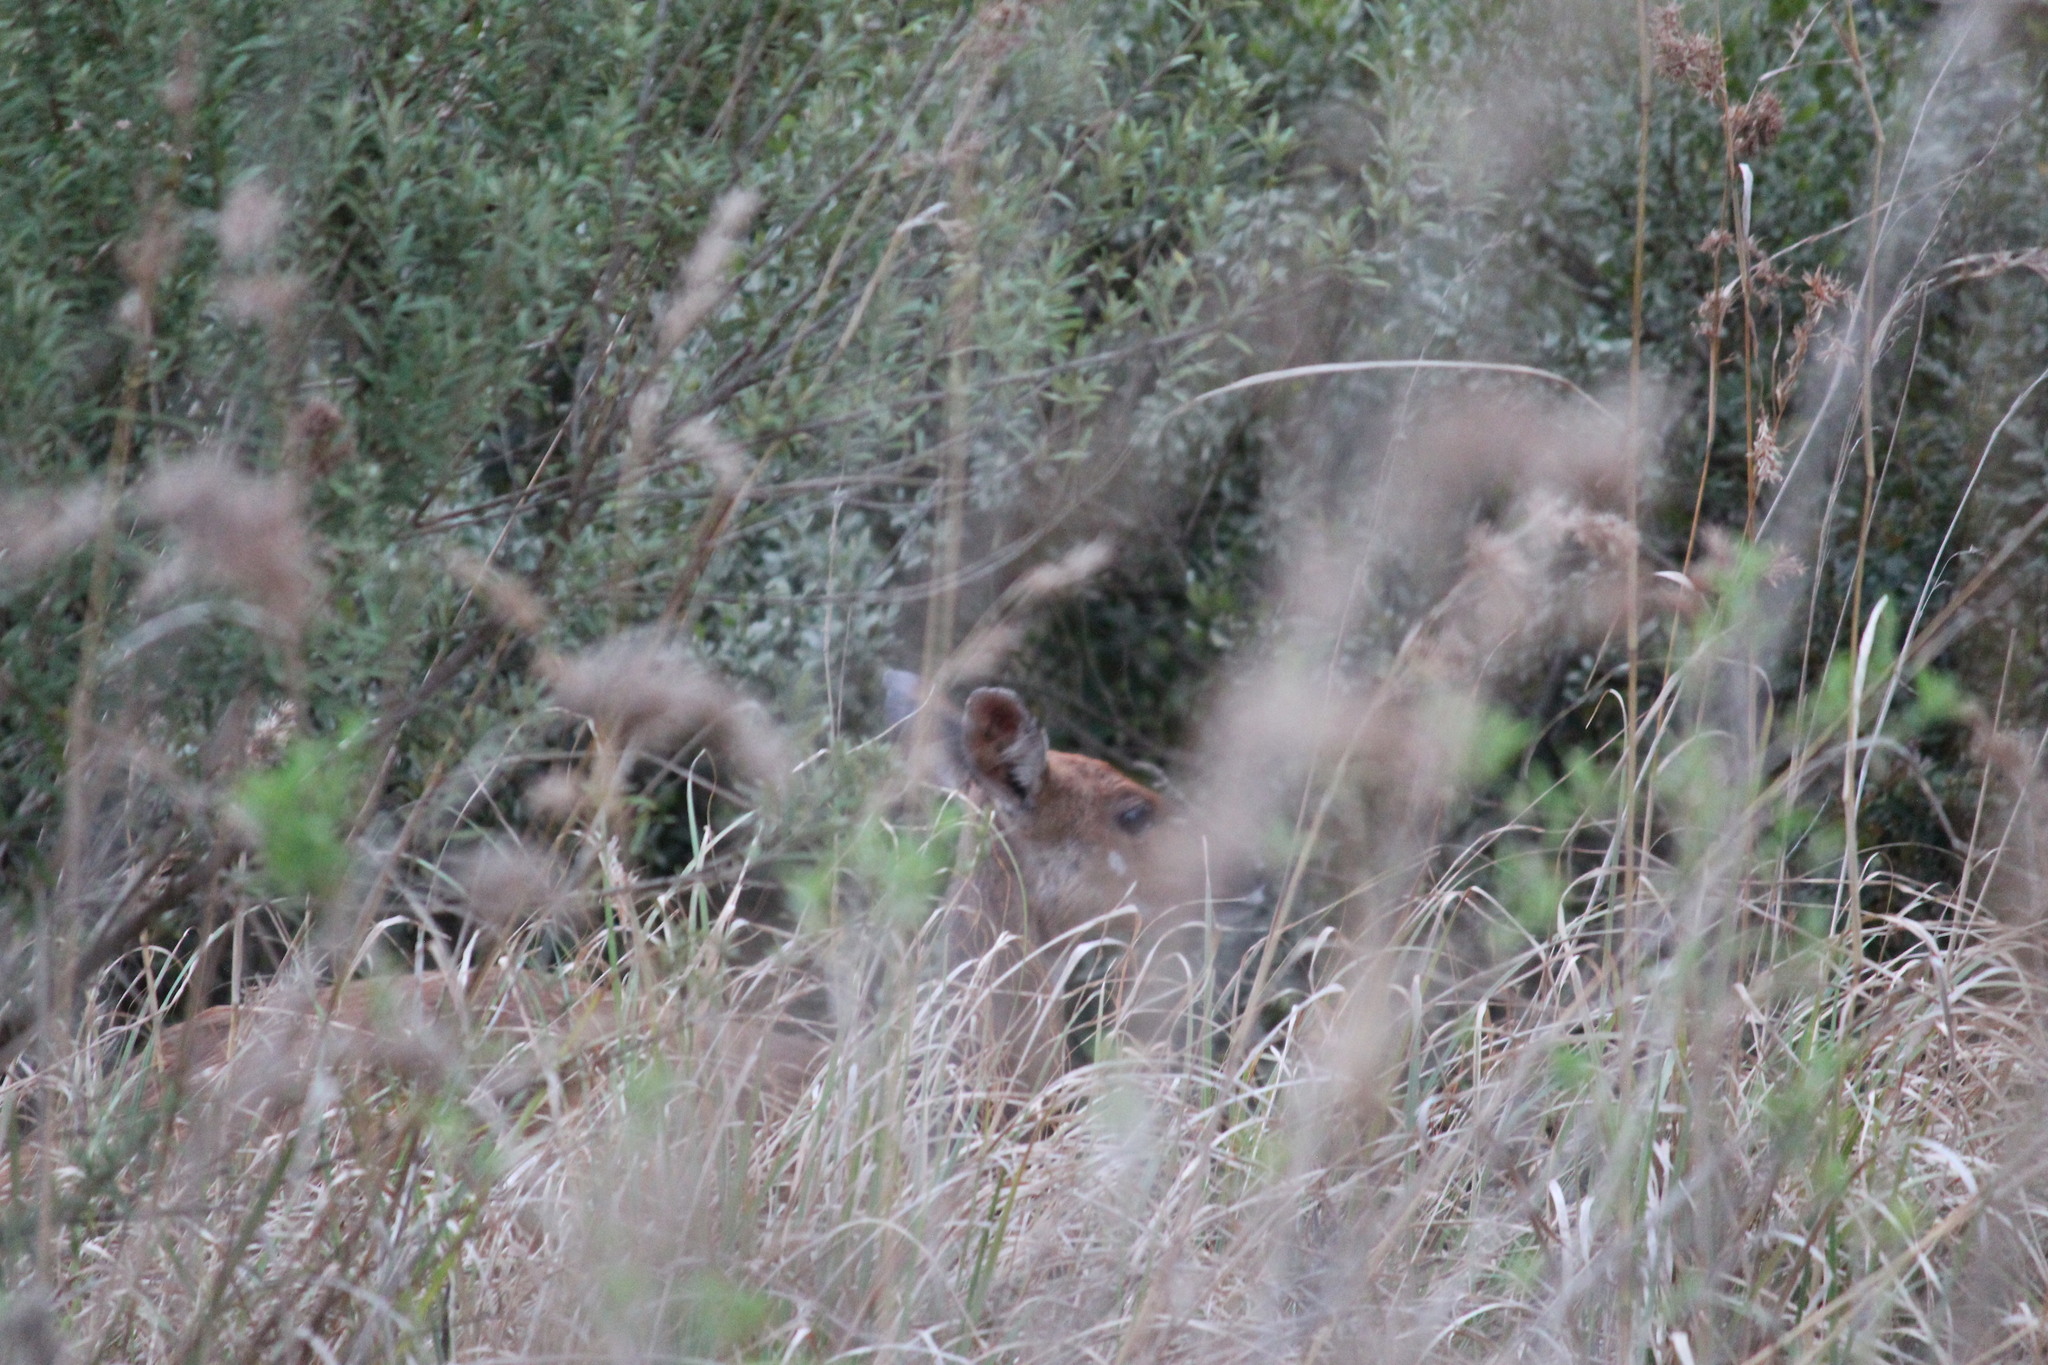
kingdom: Animalia
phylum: Chordata
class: Mammalia
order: Artiodactyla
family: Bovidae
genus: Tragelaphus
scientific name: Tragelaphus scriptus
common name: Bushbuck
